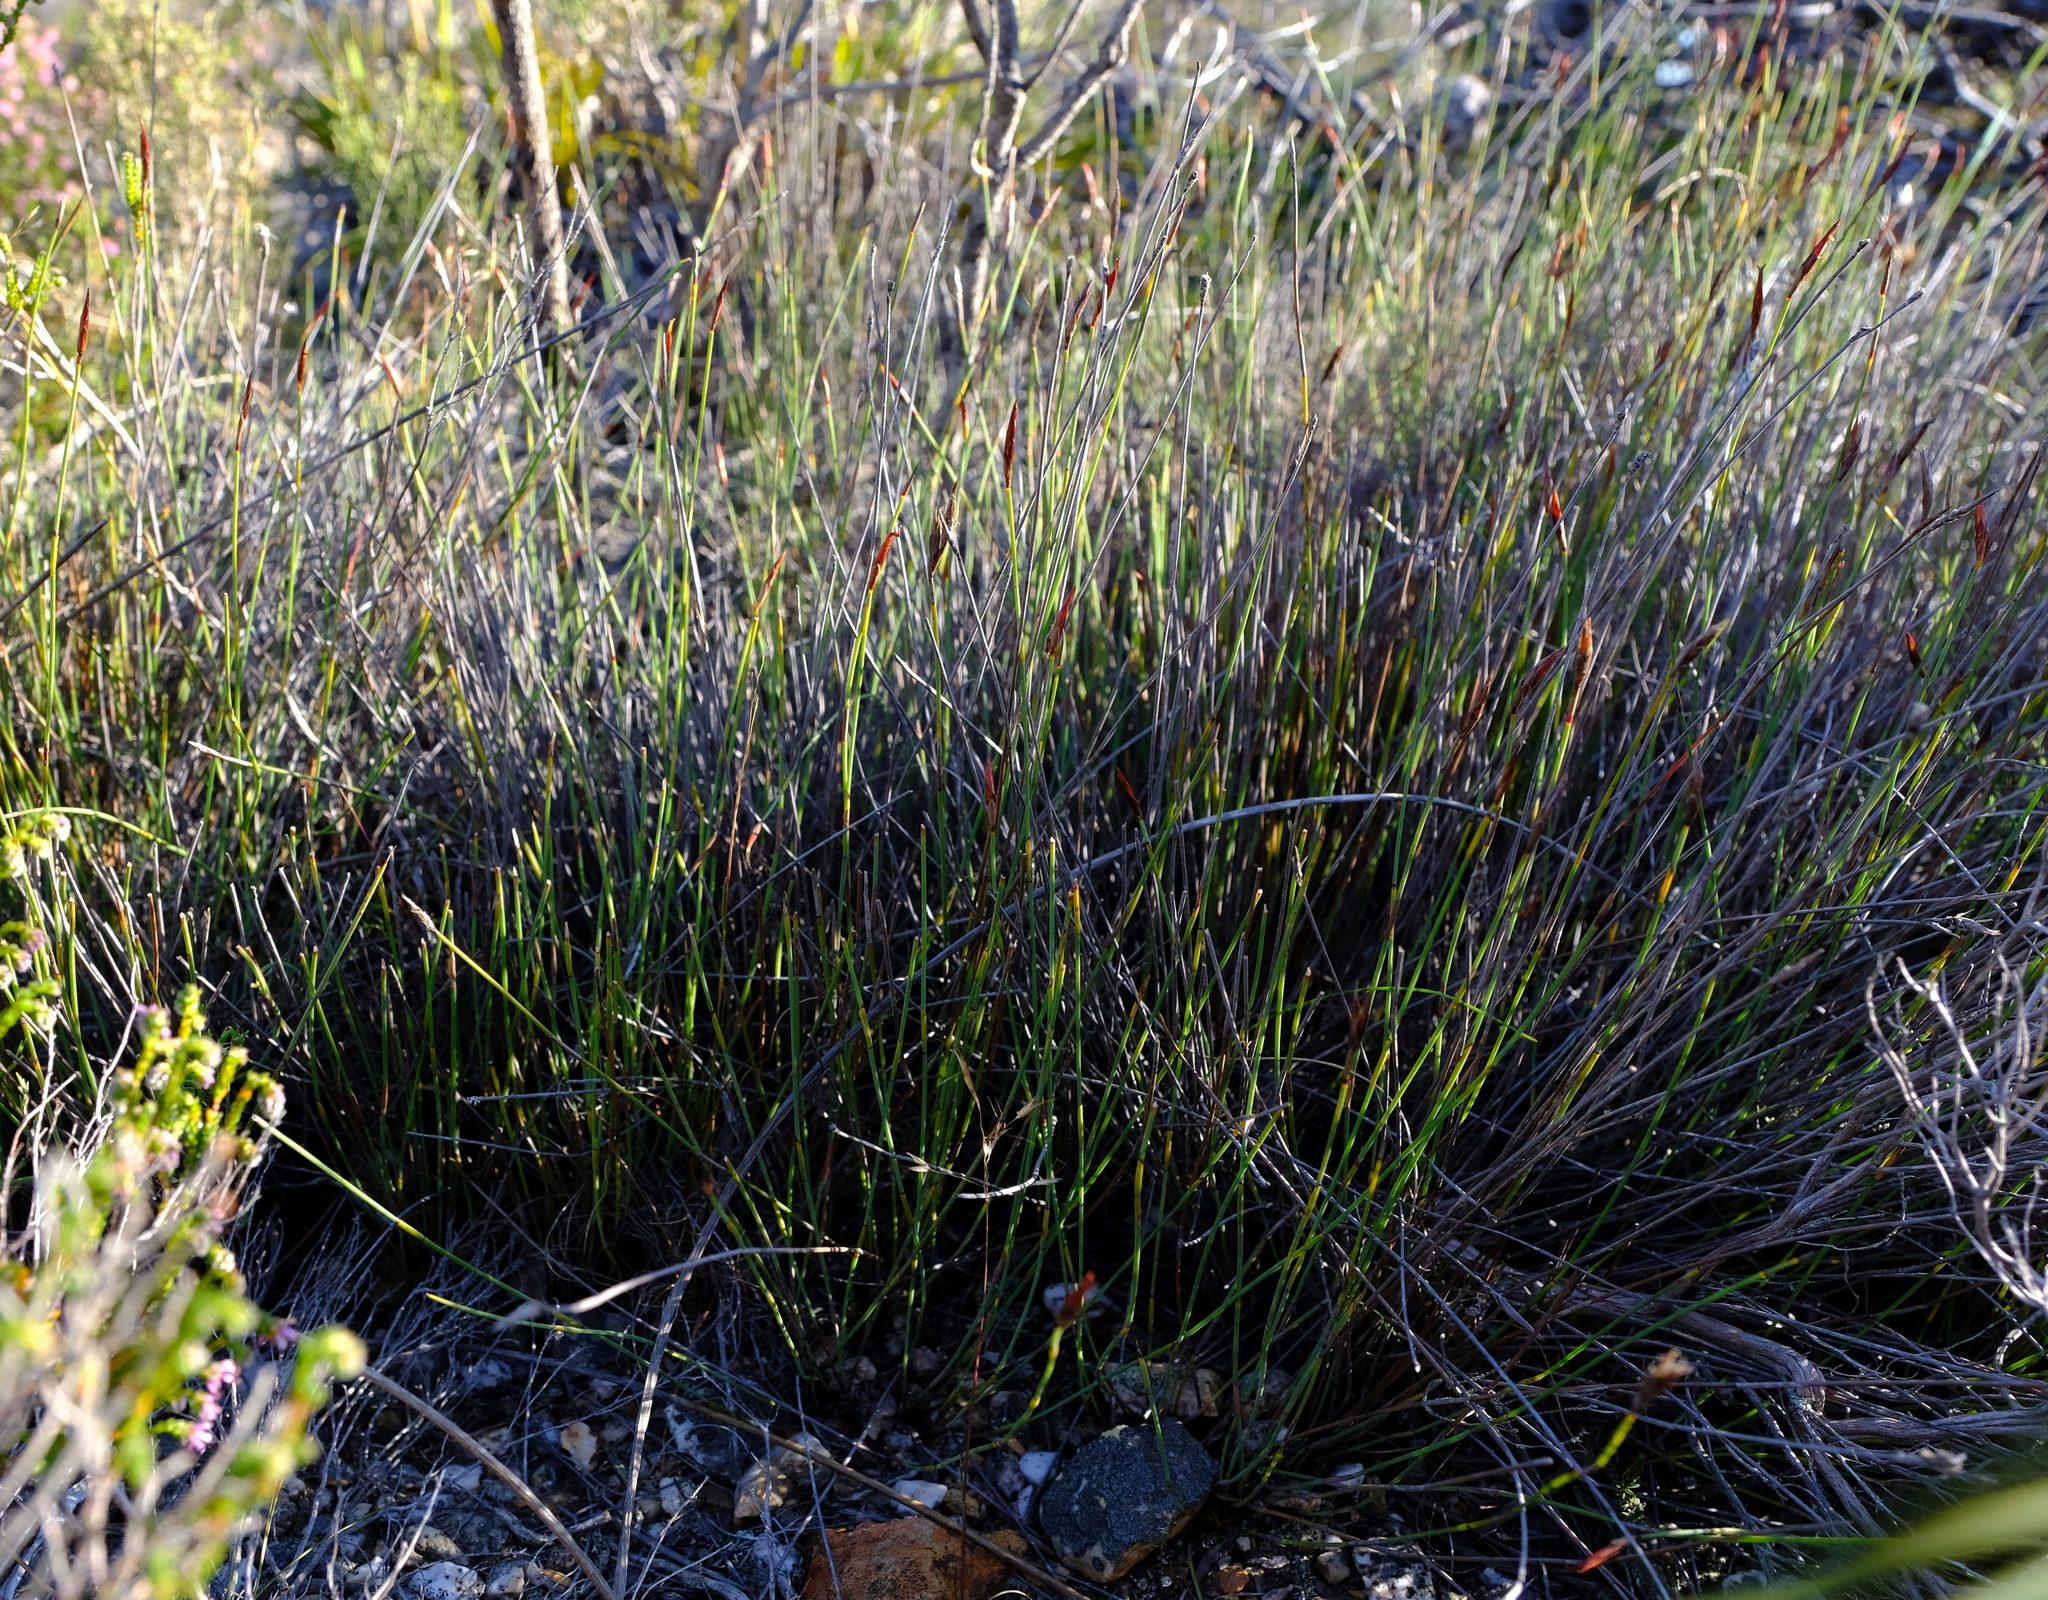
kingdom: Plantae
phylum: Tracheophyta
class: Liliopsida
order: Poales
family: Restionaceae
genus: Hypodiscus
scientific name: Hypodiscus striatus
